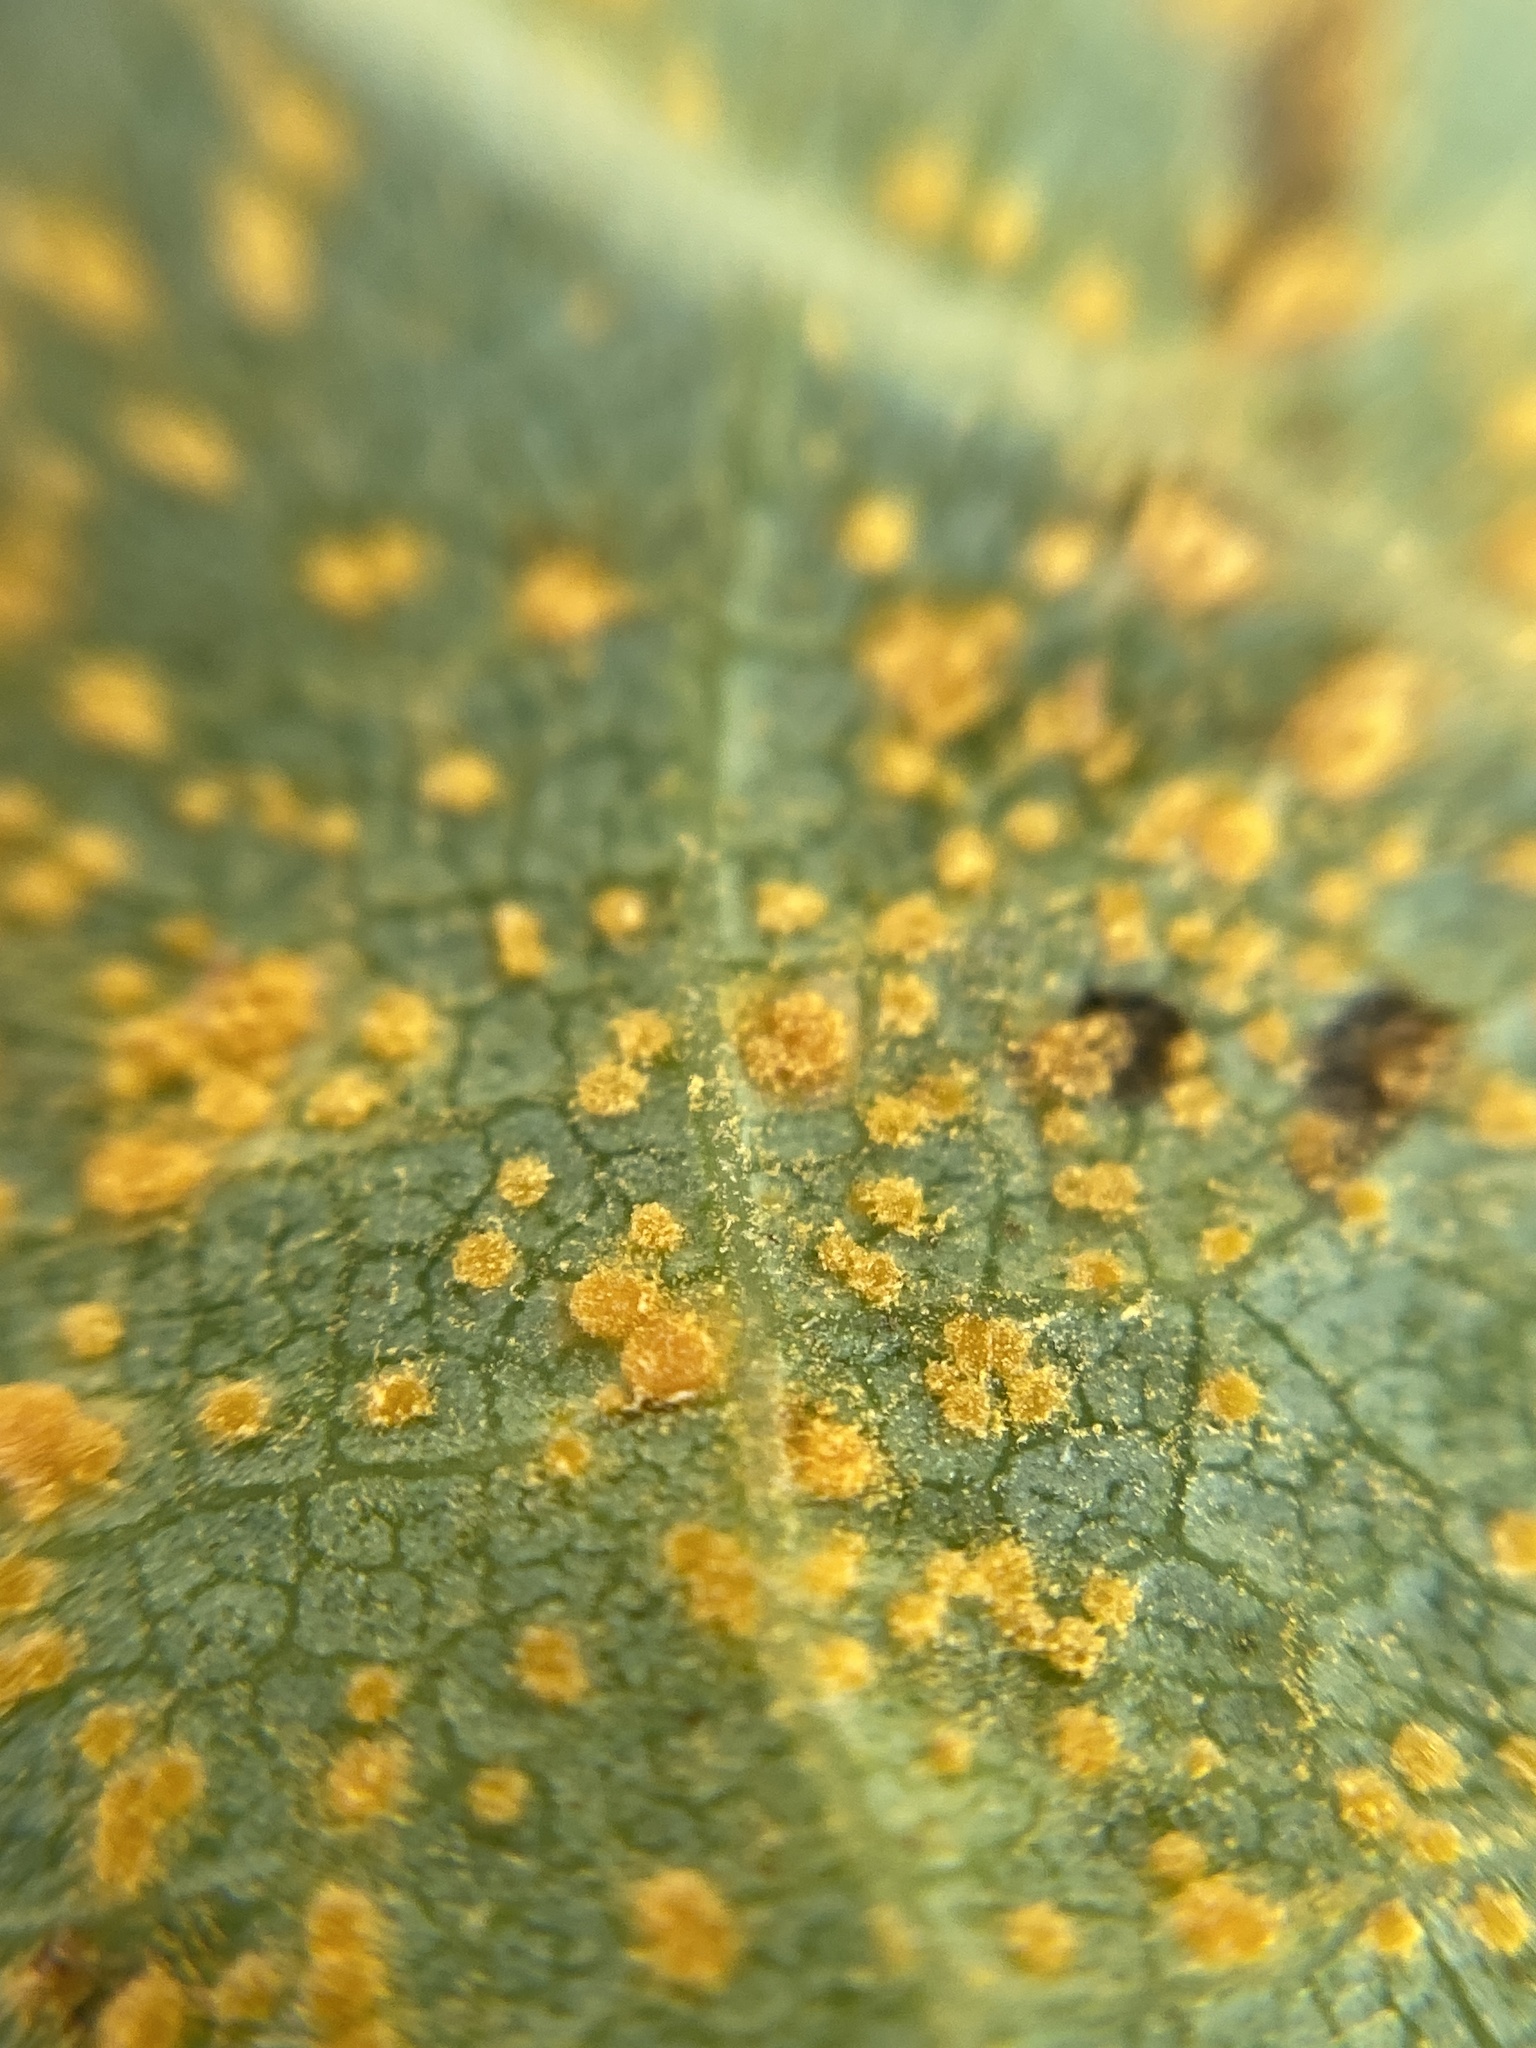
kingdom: Fungi
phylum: Basidiomycota
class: Pucciniomycetes
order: Pucciniales
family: Melampsoraceae
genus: Melampsora
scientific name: Melampsora
